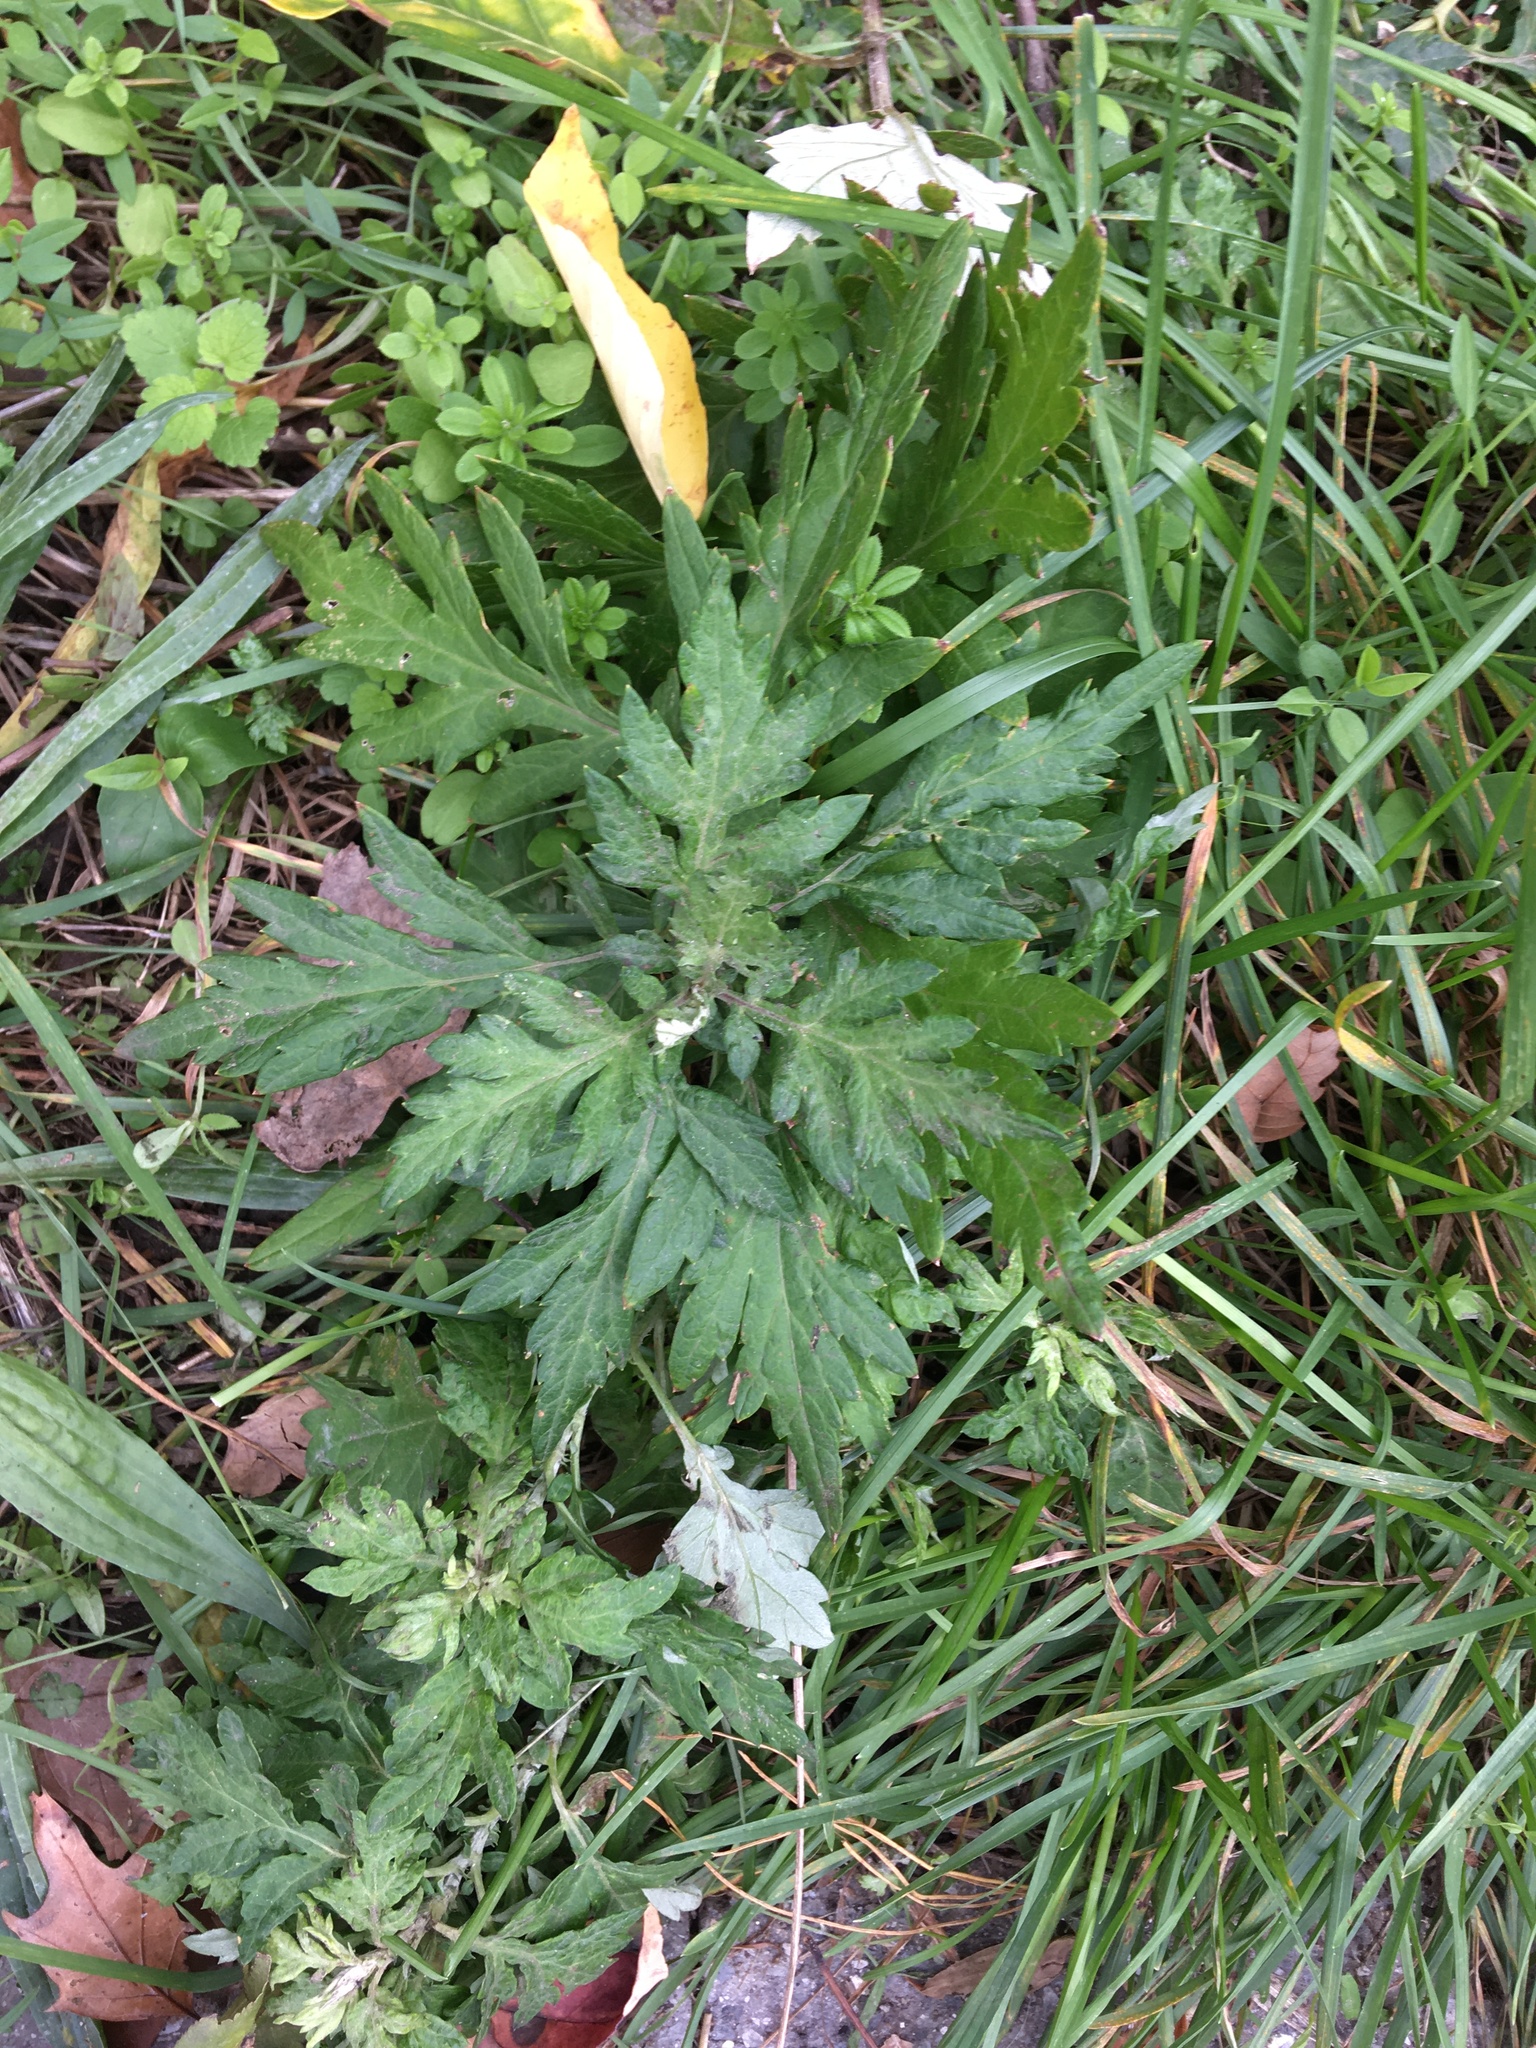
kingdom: Plantae
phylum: Tracheophyta
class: Magnoliopsida
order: Asterales
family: Asteraceae
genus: Artemisia
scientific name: Artemisia vulgaris
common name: Mugwort
